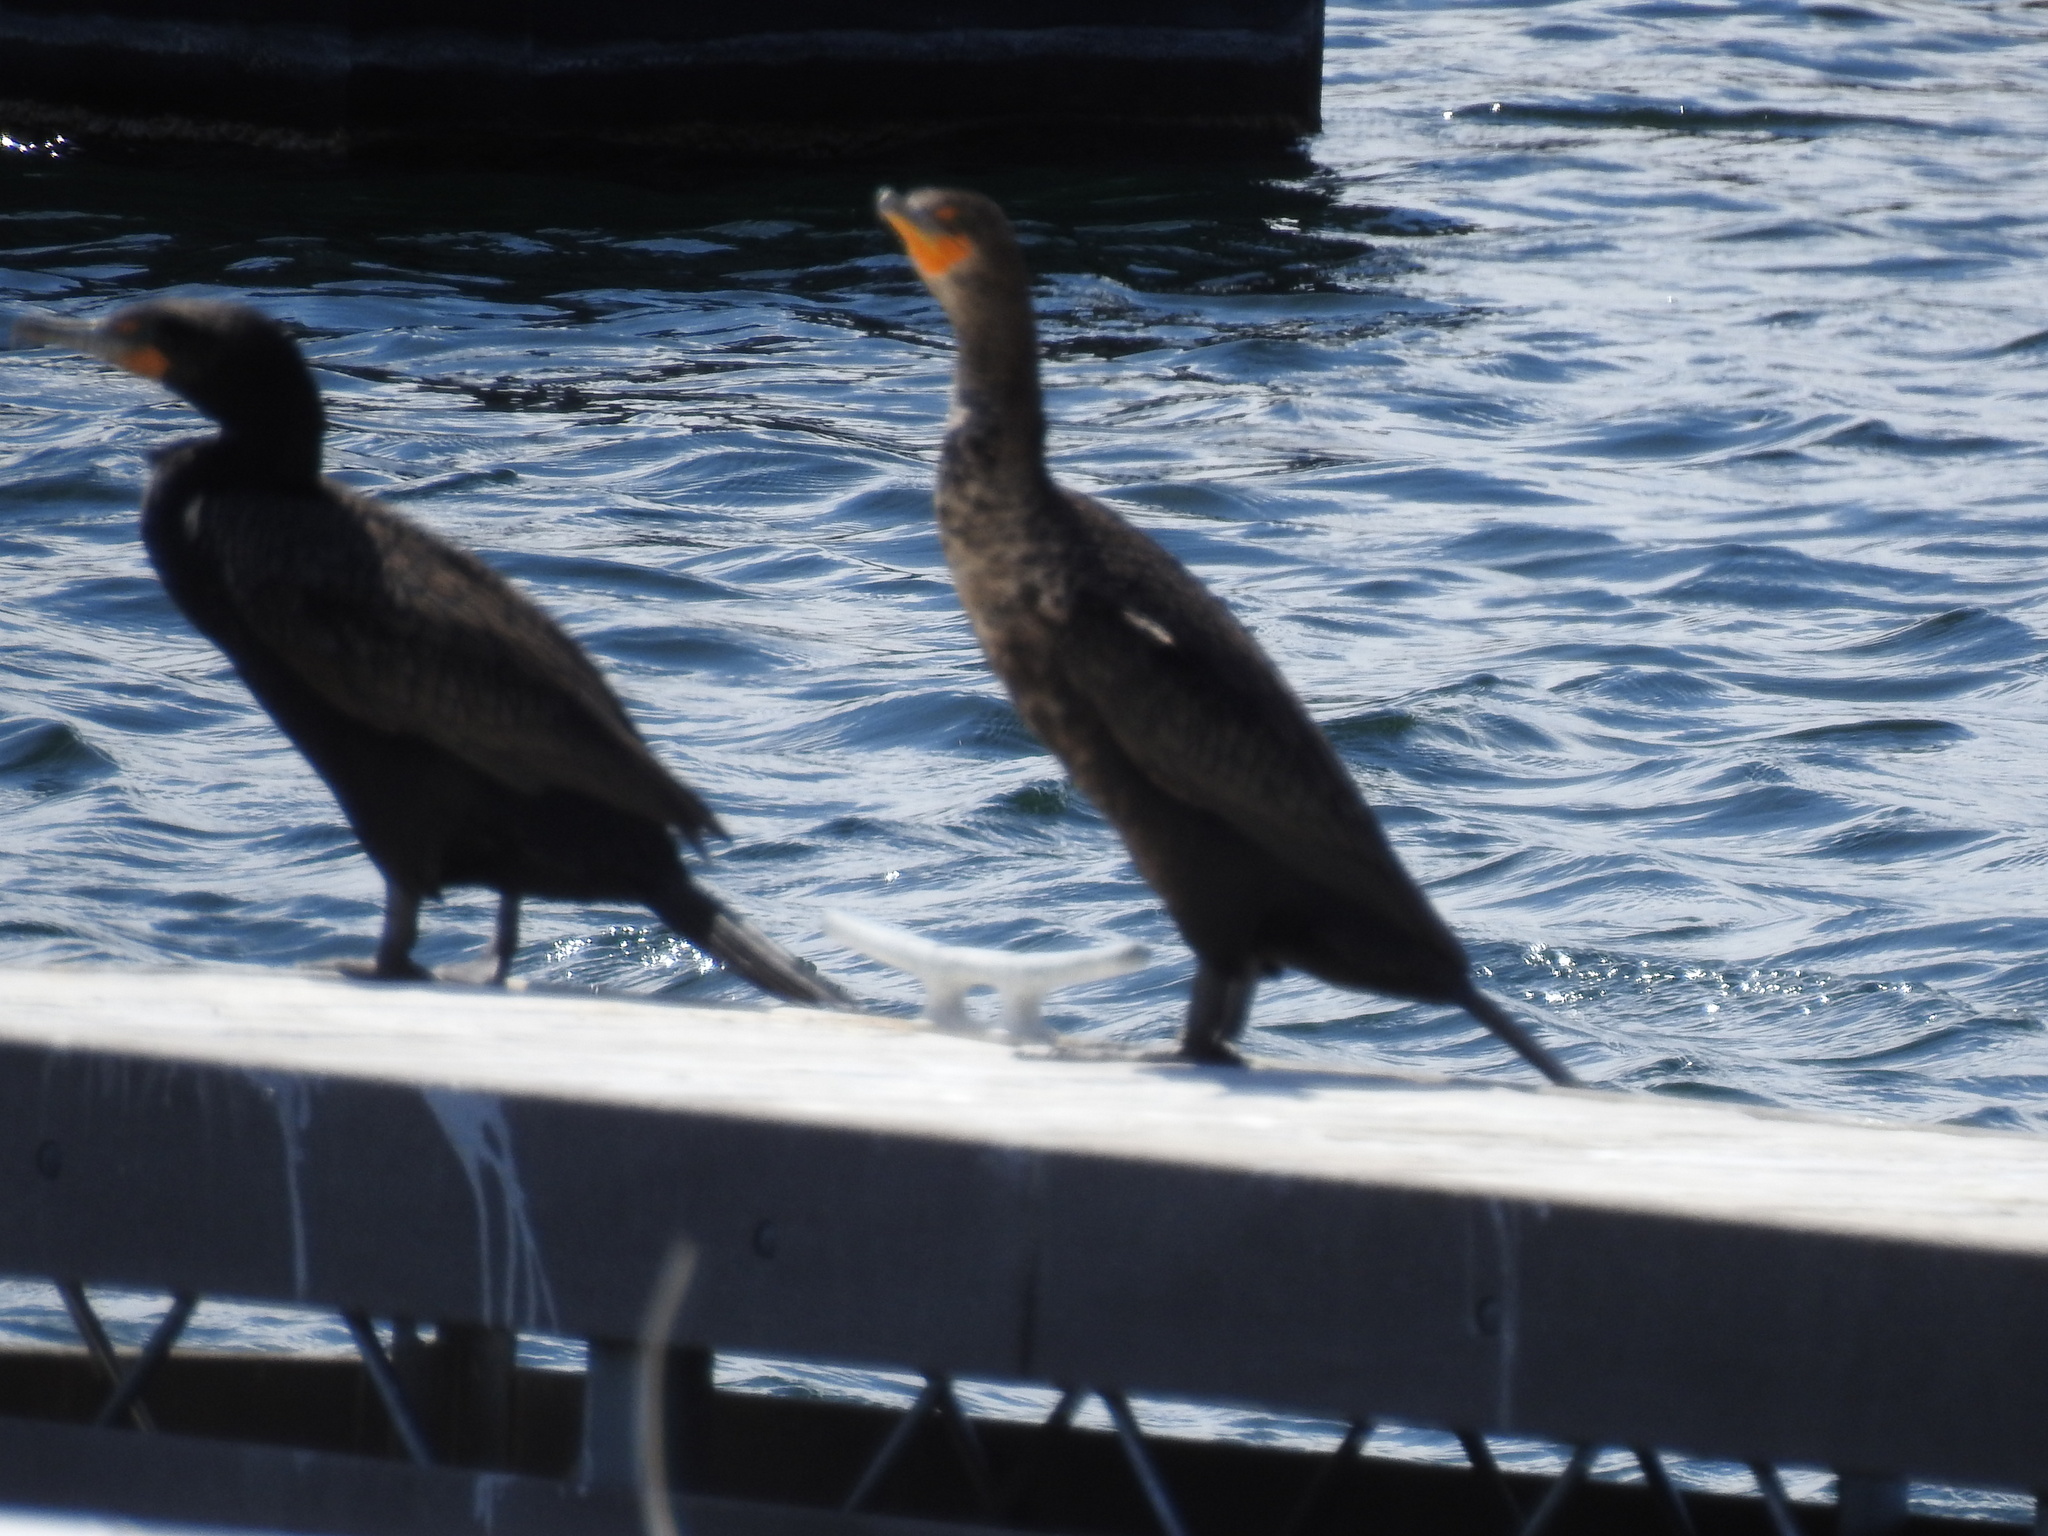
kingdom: Animalia
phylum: Chordata
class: Aves
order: Suliformes
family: Phalacrocoracidae
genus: Phalacrocorax
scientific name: Phalacrocorax auritus
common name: Double-crested cormorant
